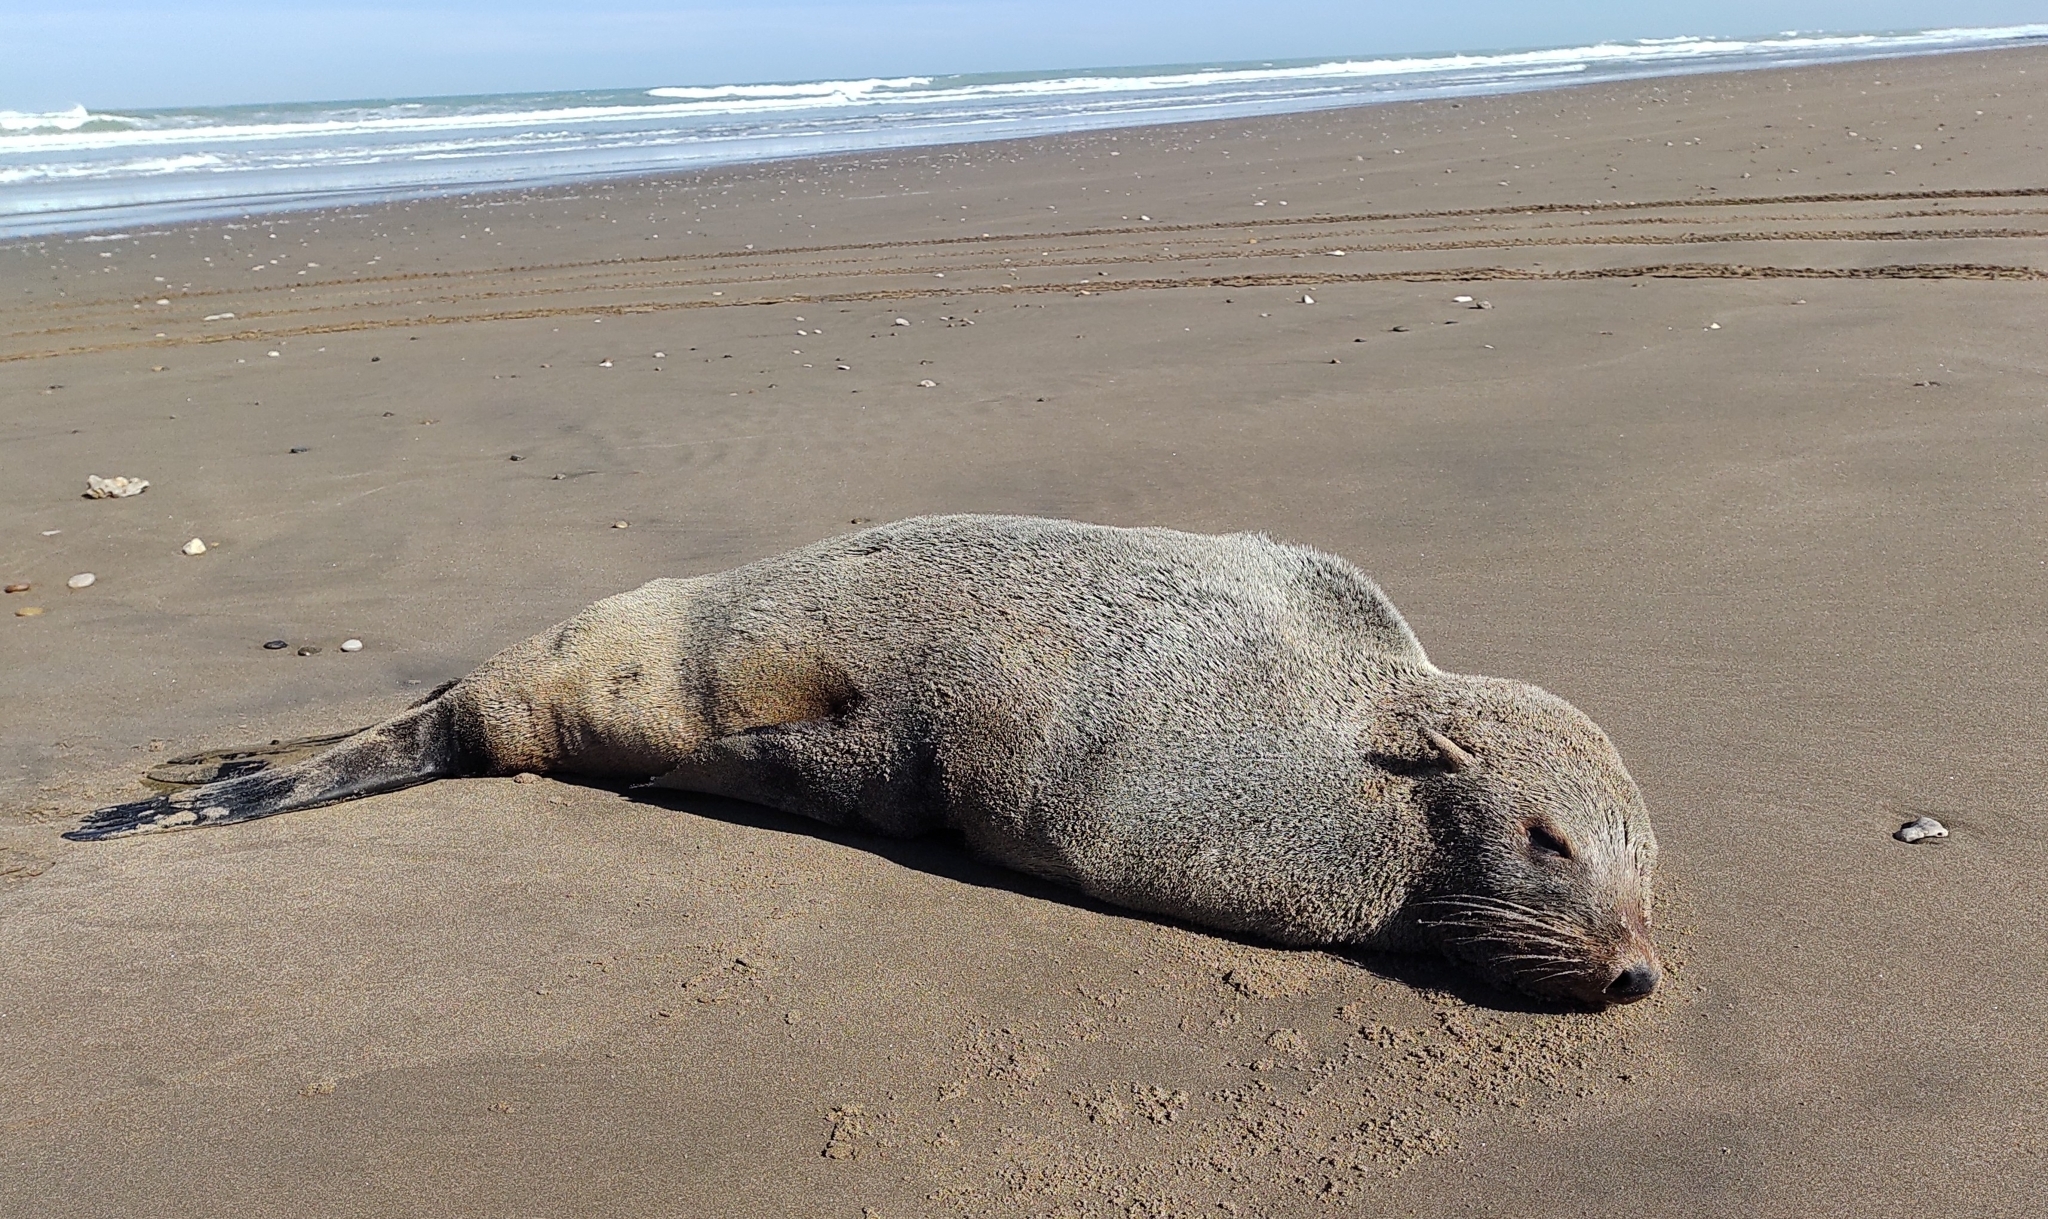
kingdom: Animalia
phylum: Chordata
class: Mammalia
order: Carnivora
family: Otariidae
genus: Arctocephalus
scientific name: Arctocephalus australis
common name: South american fur seal
